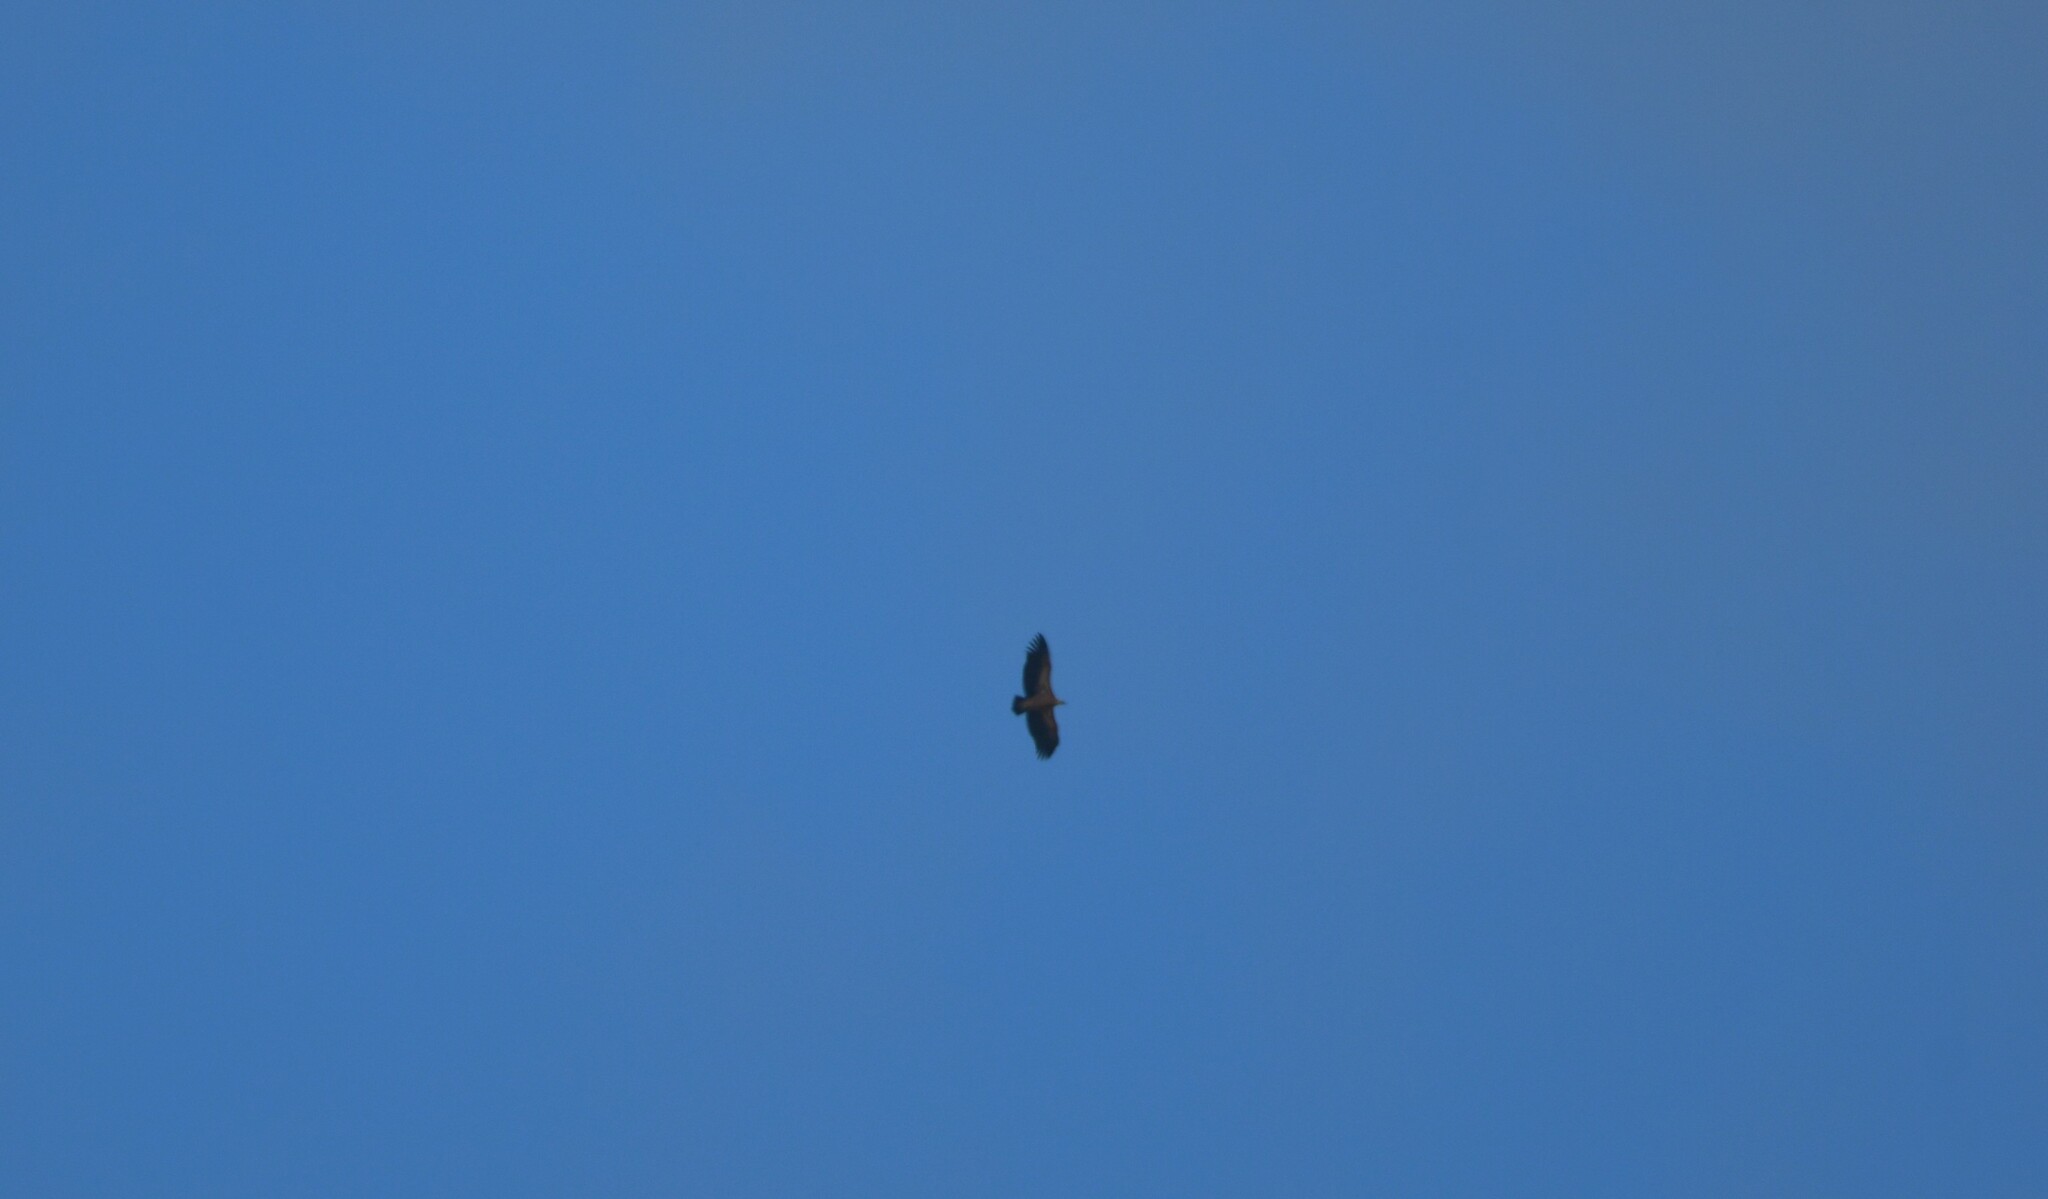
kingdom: Animalia
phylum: Chordata
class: Aves
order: Accipitriformes
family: Accipitridae
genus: Gyps
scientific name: Gyps fulvus
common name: Griffon vulture
